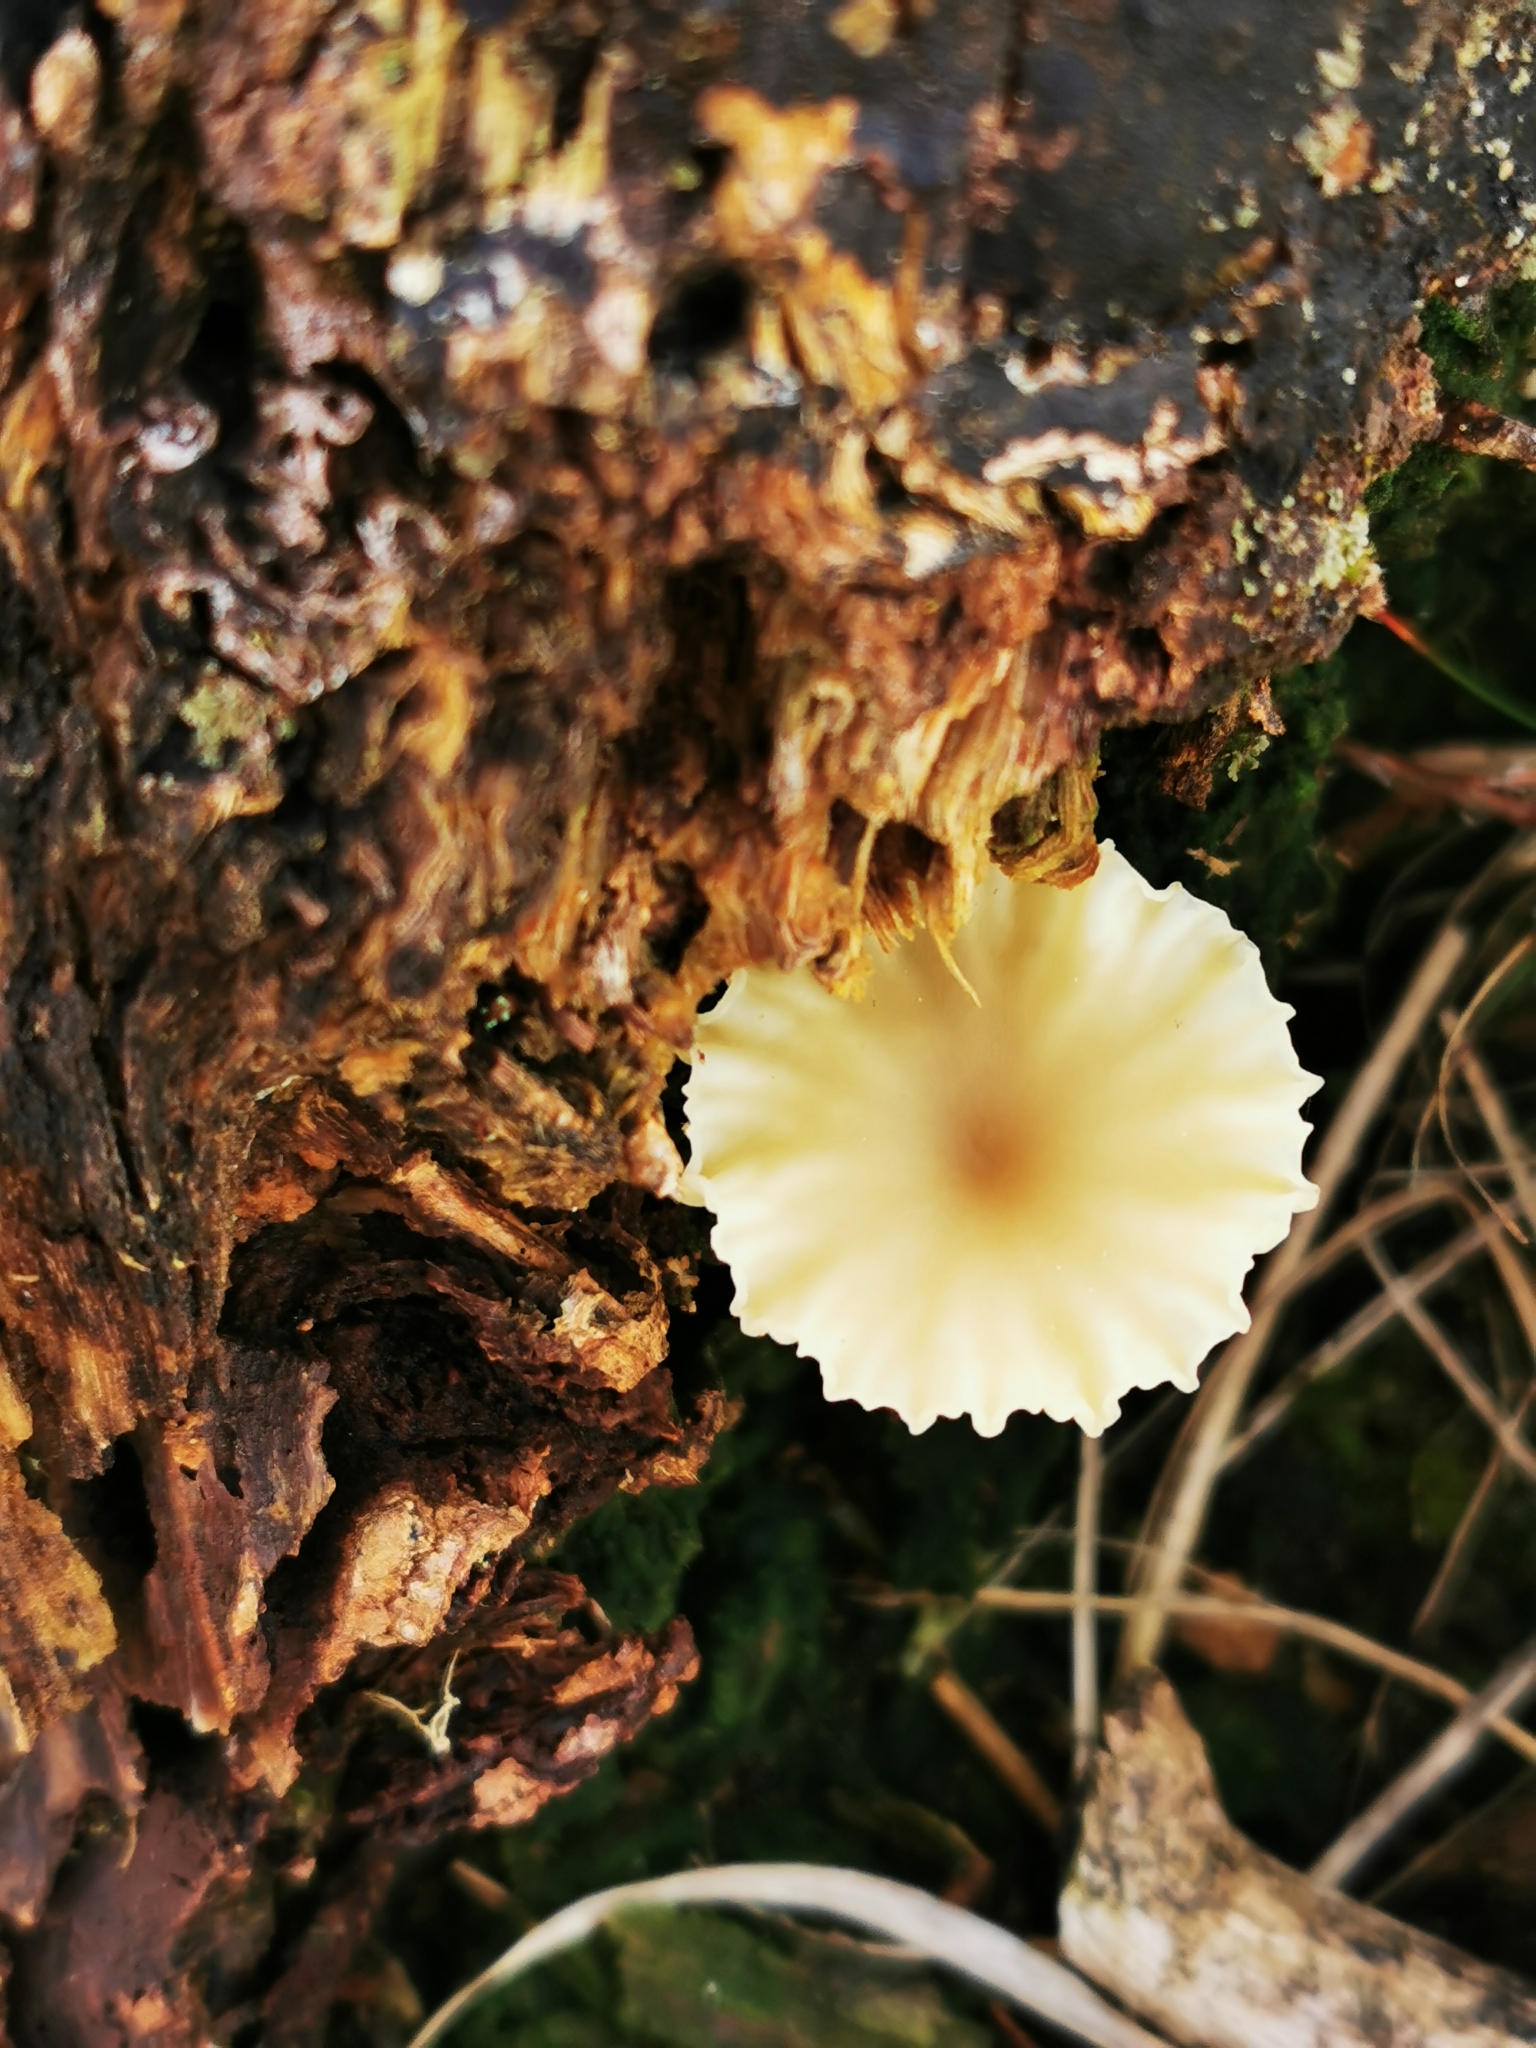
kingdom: Fungi
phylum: Basidiomycota
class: Agaricomycetes
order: Agaricales
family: Hygrophoraceae
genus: Lichenomphalia
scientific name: Lichenomphalia
